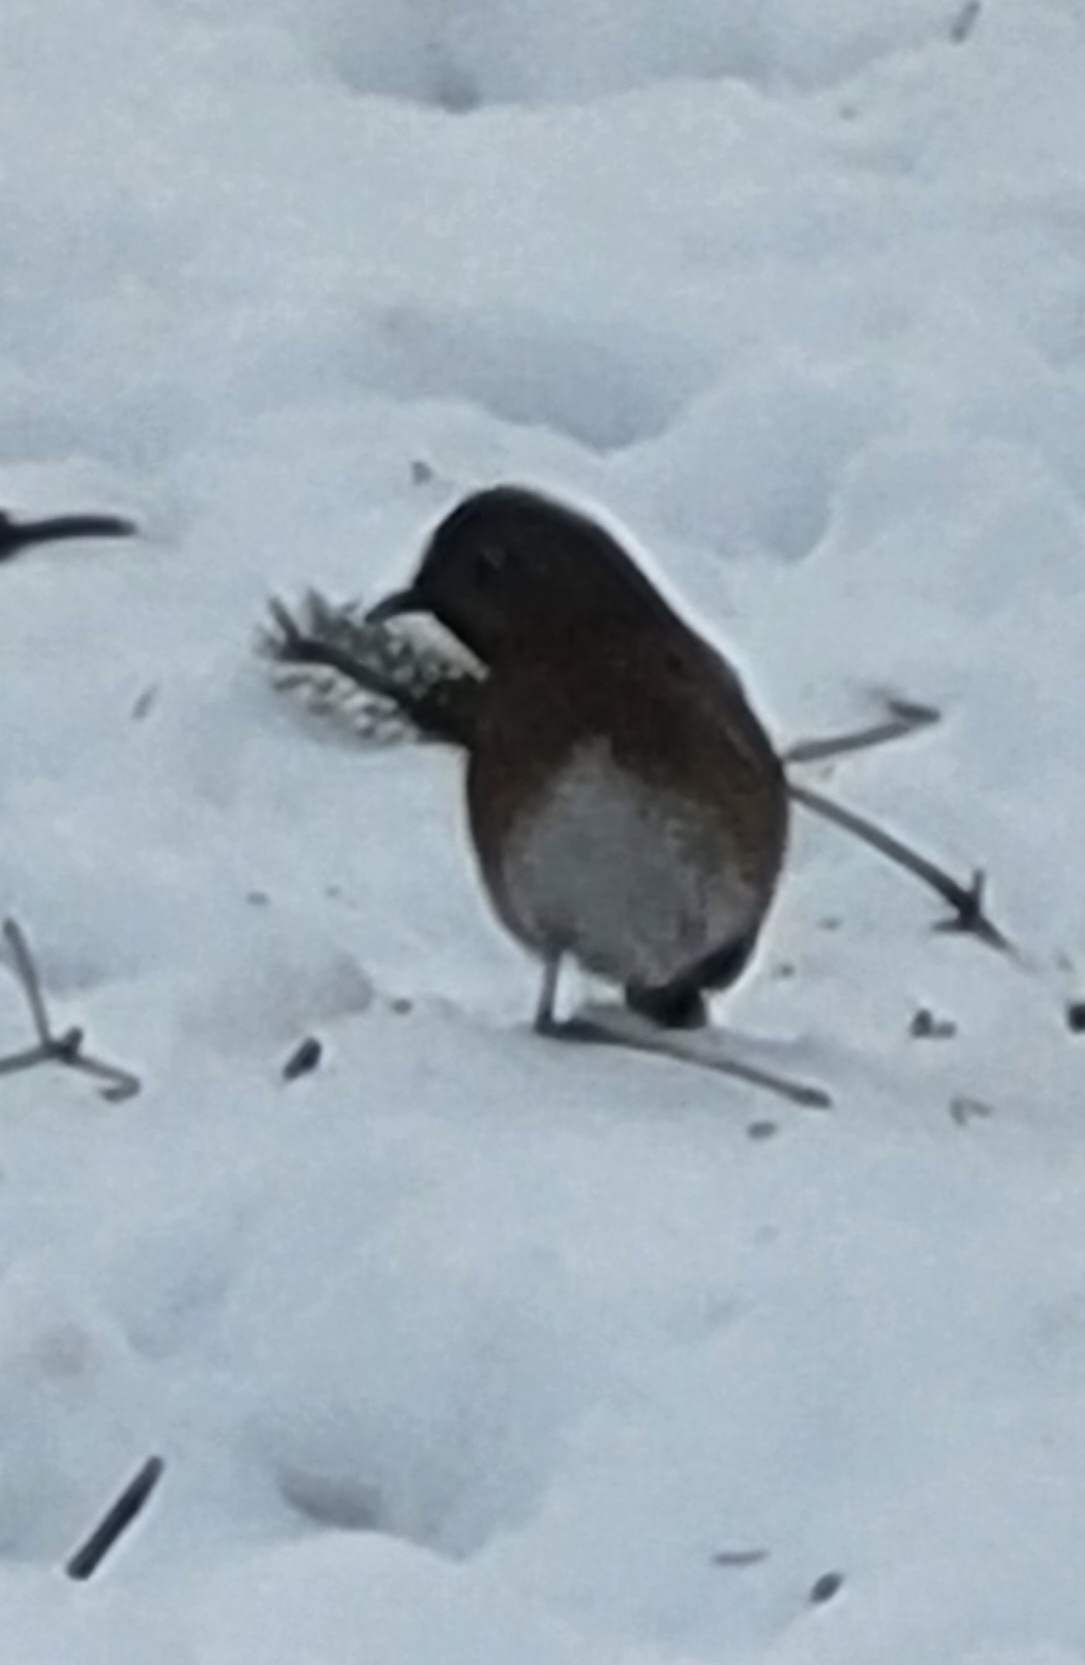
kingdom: Animalia
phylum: Chordata
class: Aves
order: Passeriformes
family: Turdidae
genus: Sialia
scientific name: Sialia sialis
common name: Eastern bluebird
